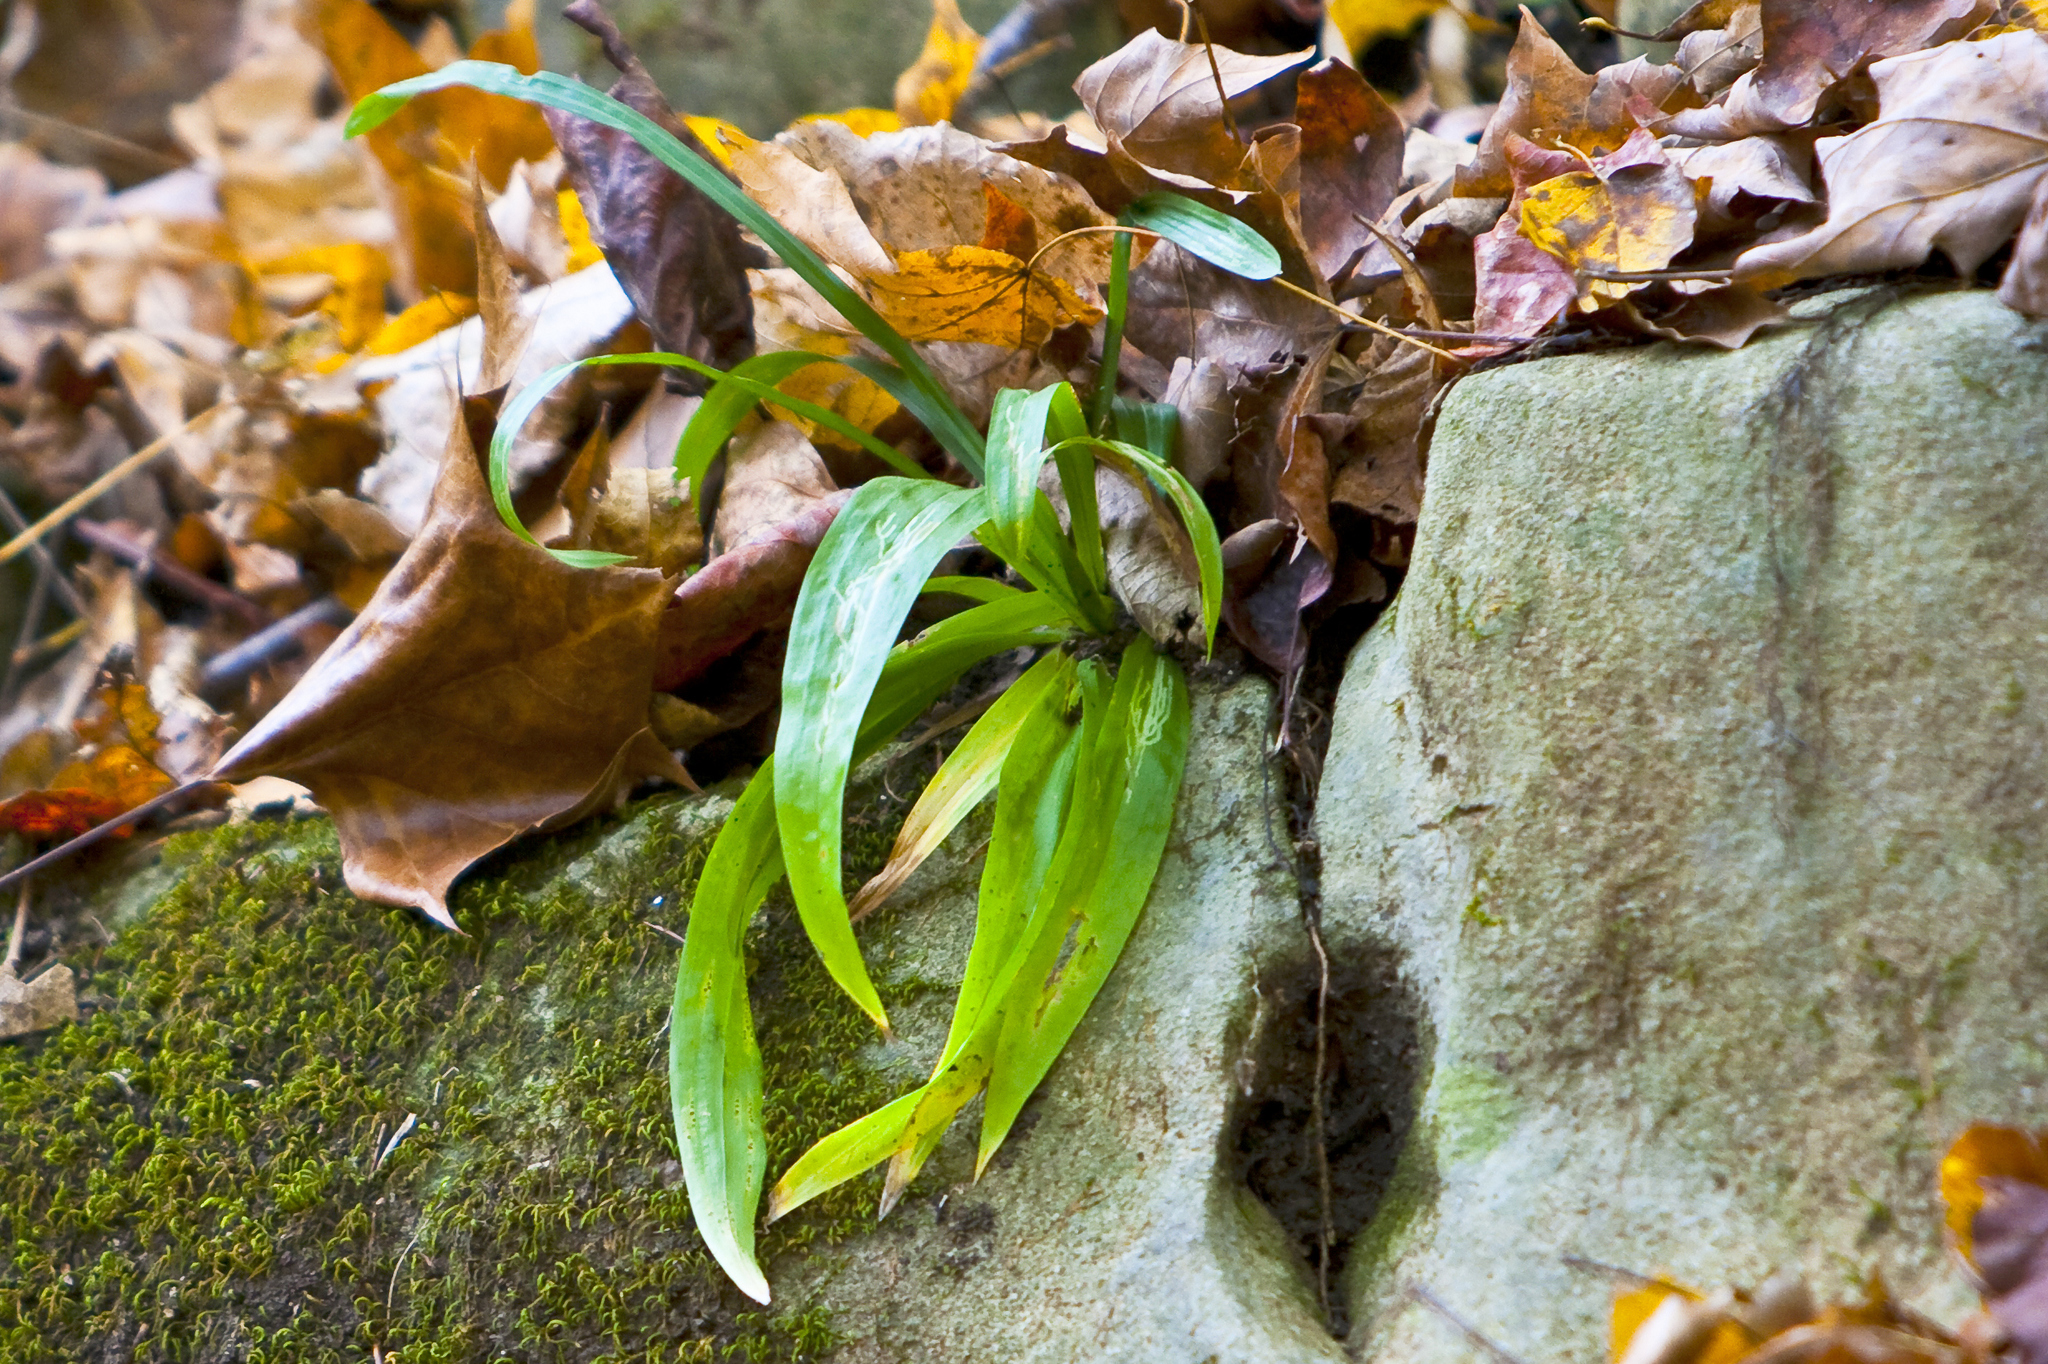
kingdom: Plantae
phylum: Tracheophyta
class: Liliopsida
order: Poales
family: Cyperaceae
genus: Carex
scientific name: Carex plantaginea
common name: Plantain-leaved sedge
